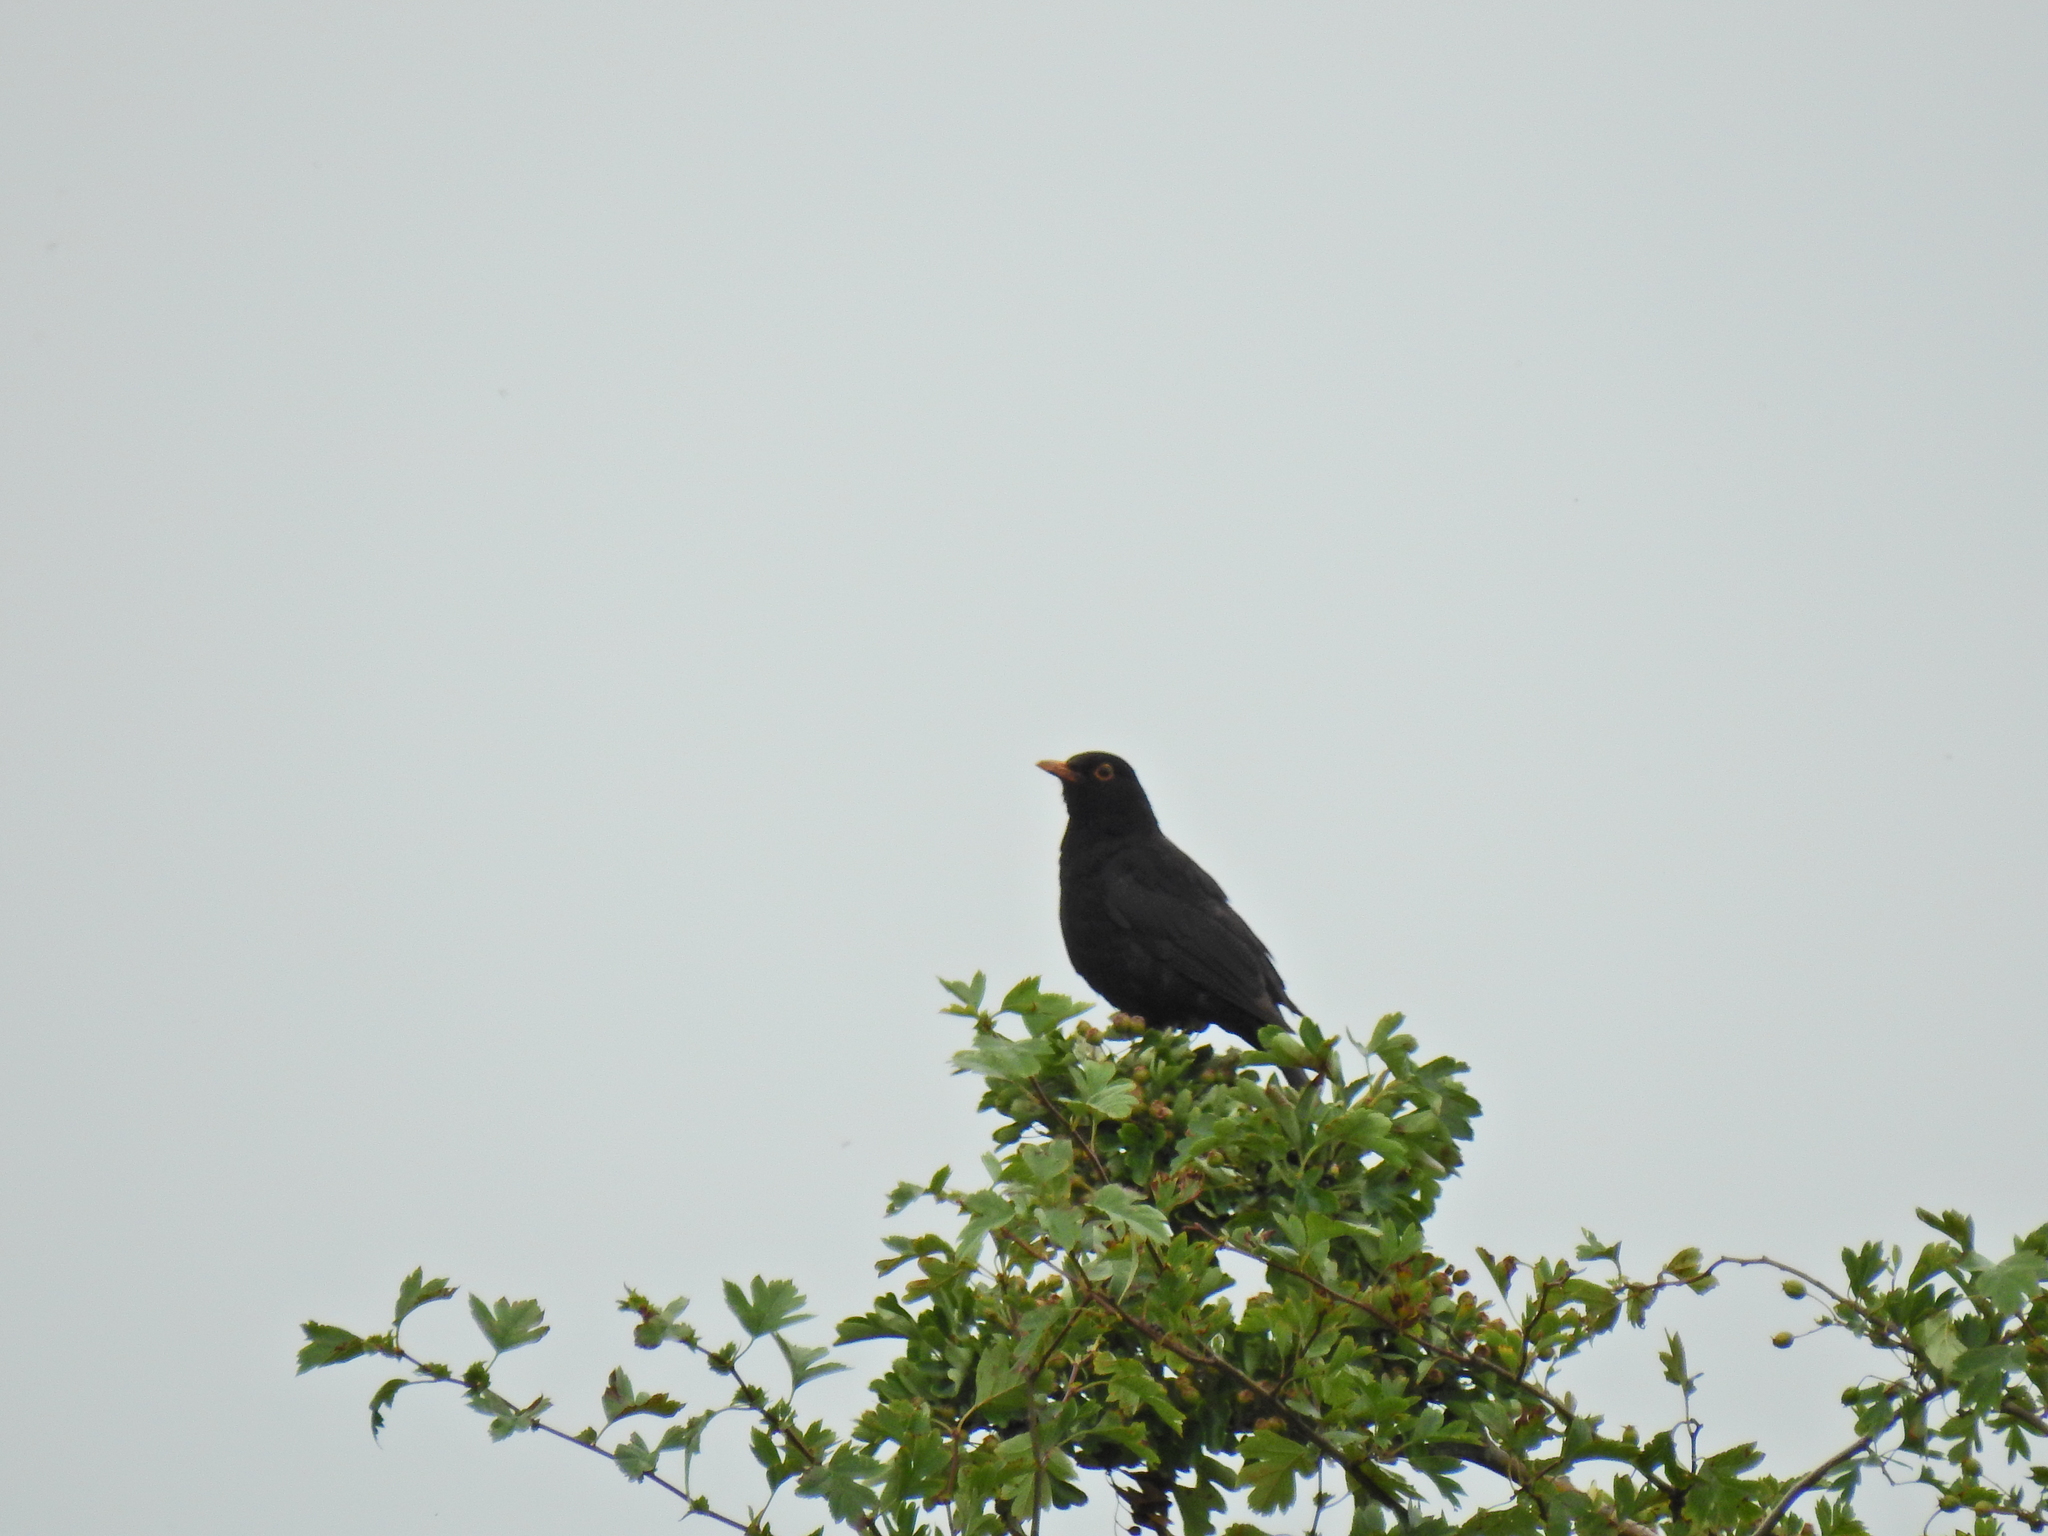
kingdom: Animalia
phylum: Chordata
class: Aves
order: Passeriformes
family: Turdidae
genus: Turdus
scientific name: Turdus merula
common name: Common blackbird
